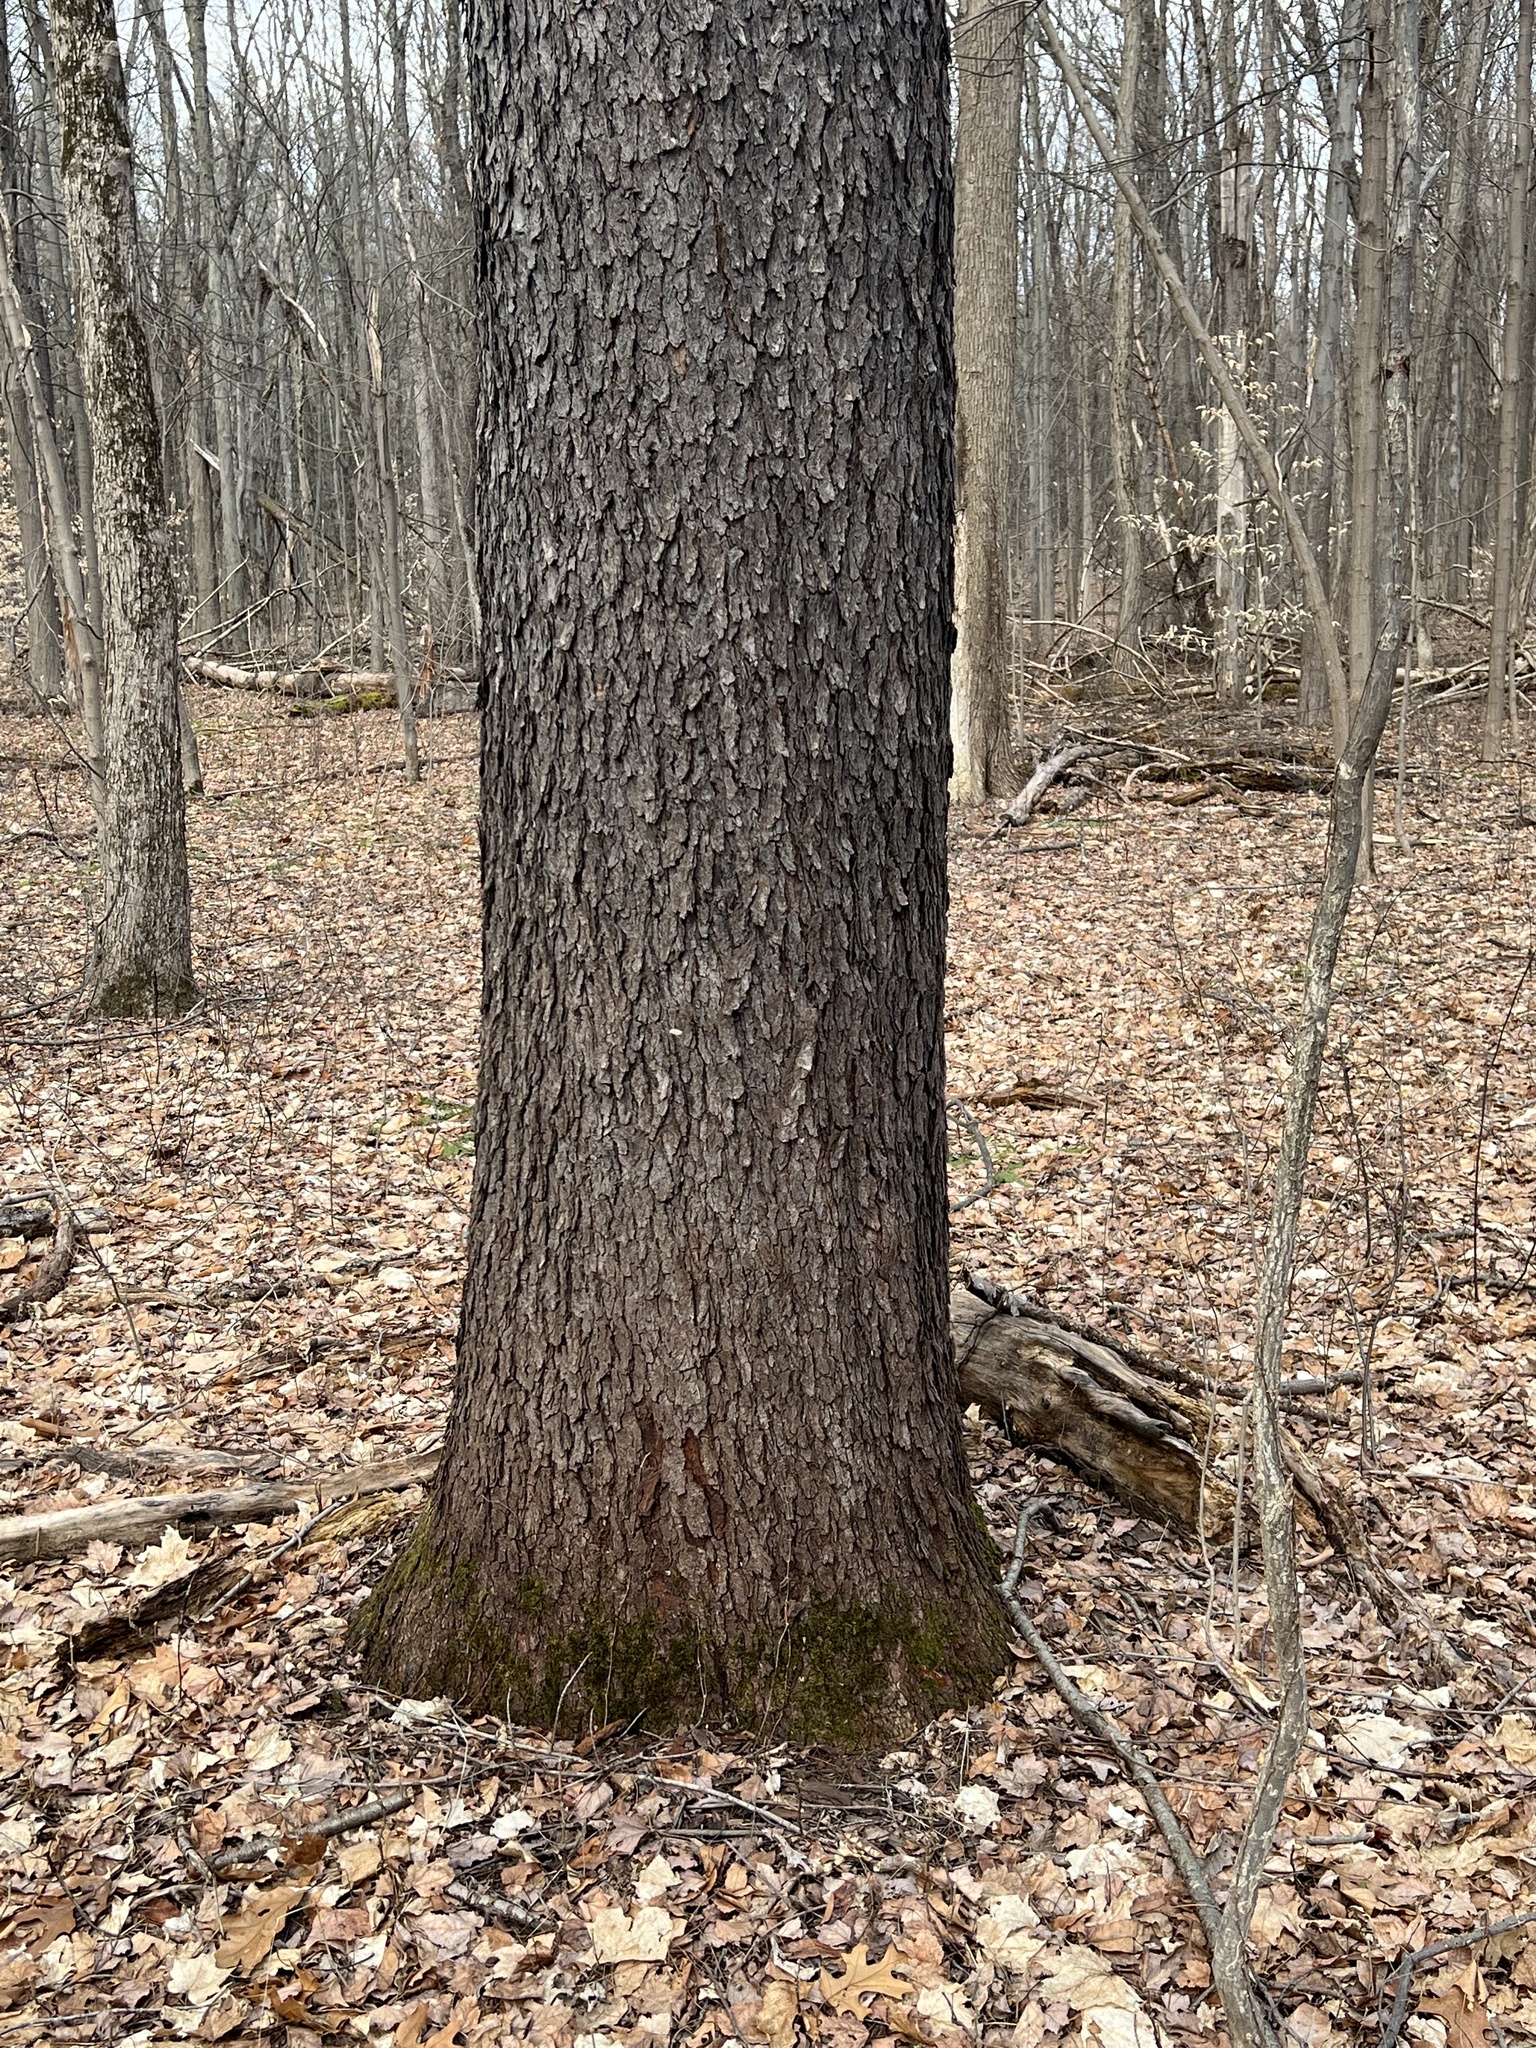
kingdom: Plantae
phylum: Tracheophyta
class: Magnoliopsida
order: Rosales
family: Rosaceae
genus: Prunus
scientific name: Prunus serotina
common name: Black cherry
